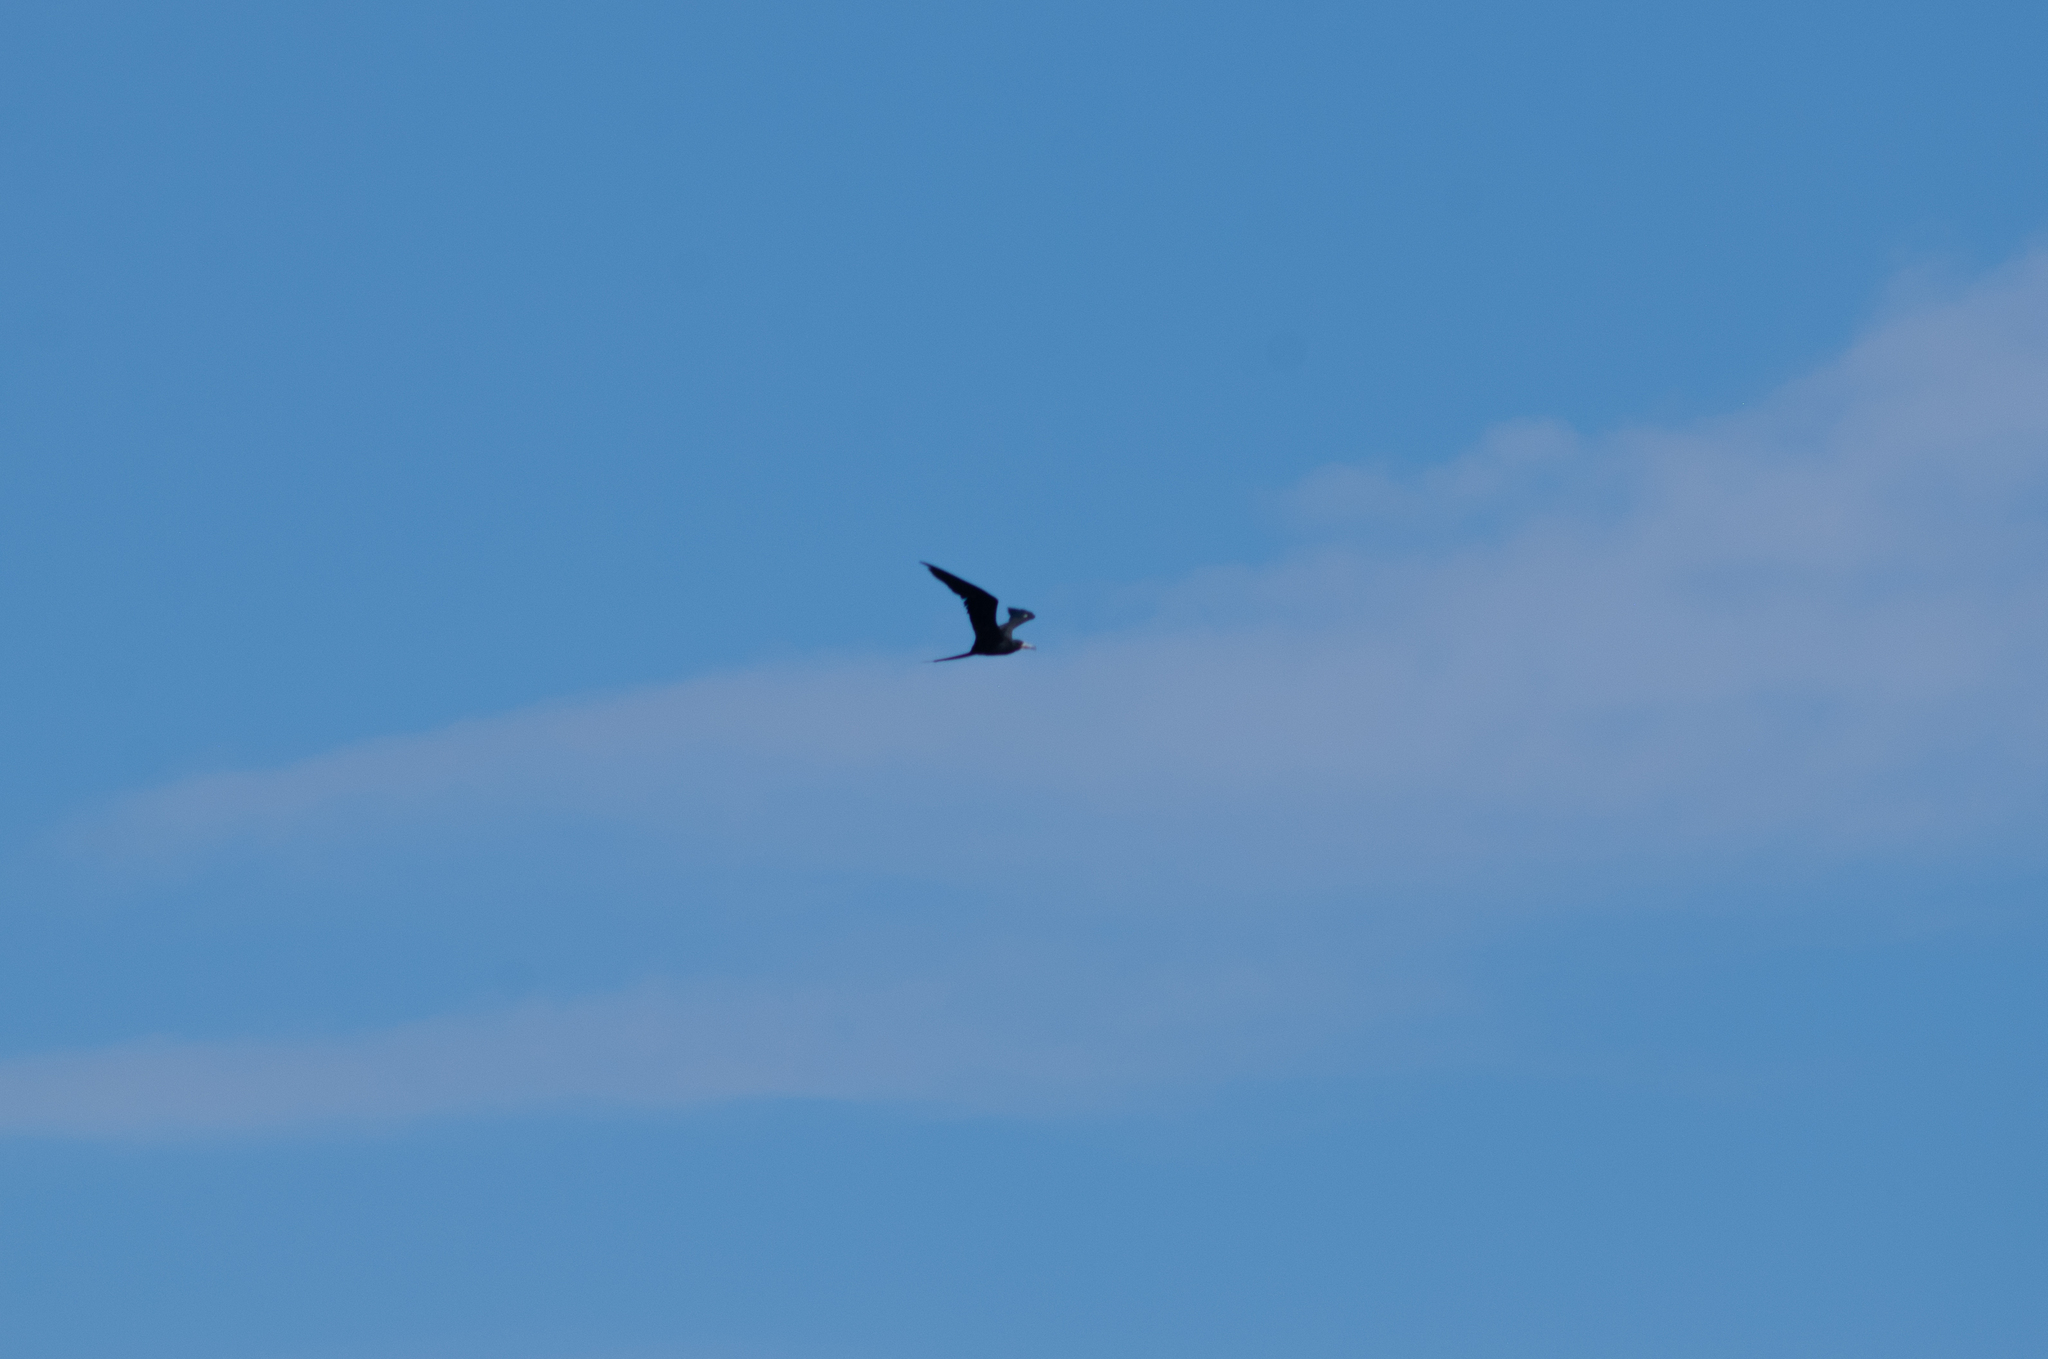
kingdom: Animalia
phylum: Chordata
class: Aves
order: Suliformes
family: Fregatidae
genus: Fregata
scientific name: Fregata magnificens
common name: Magnificent frigatebird
